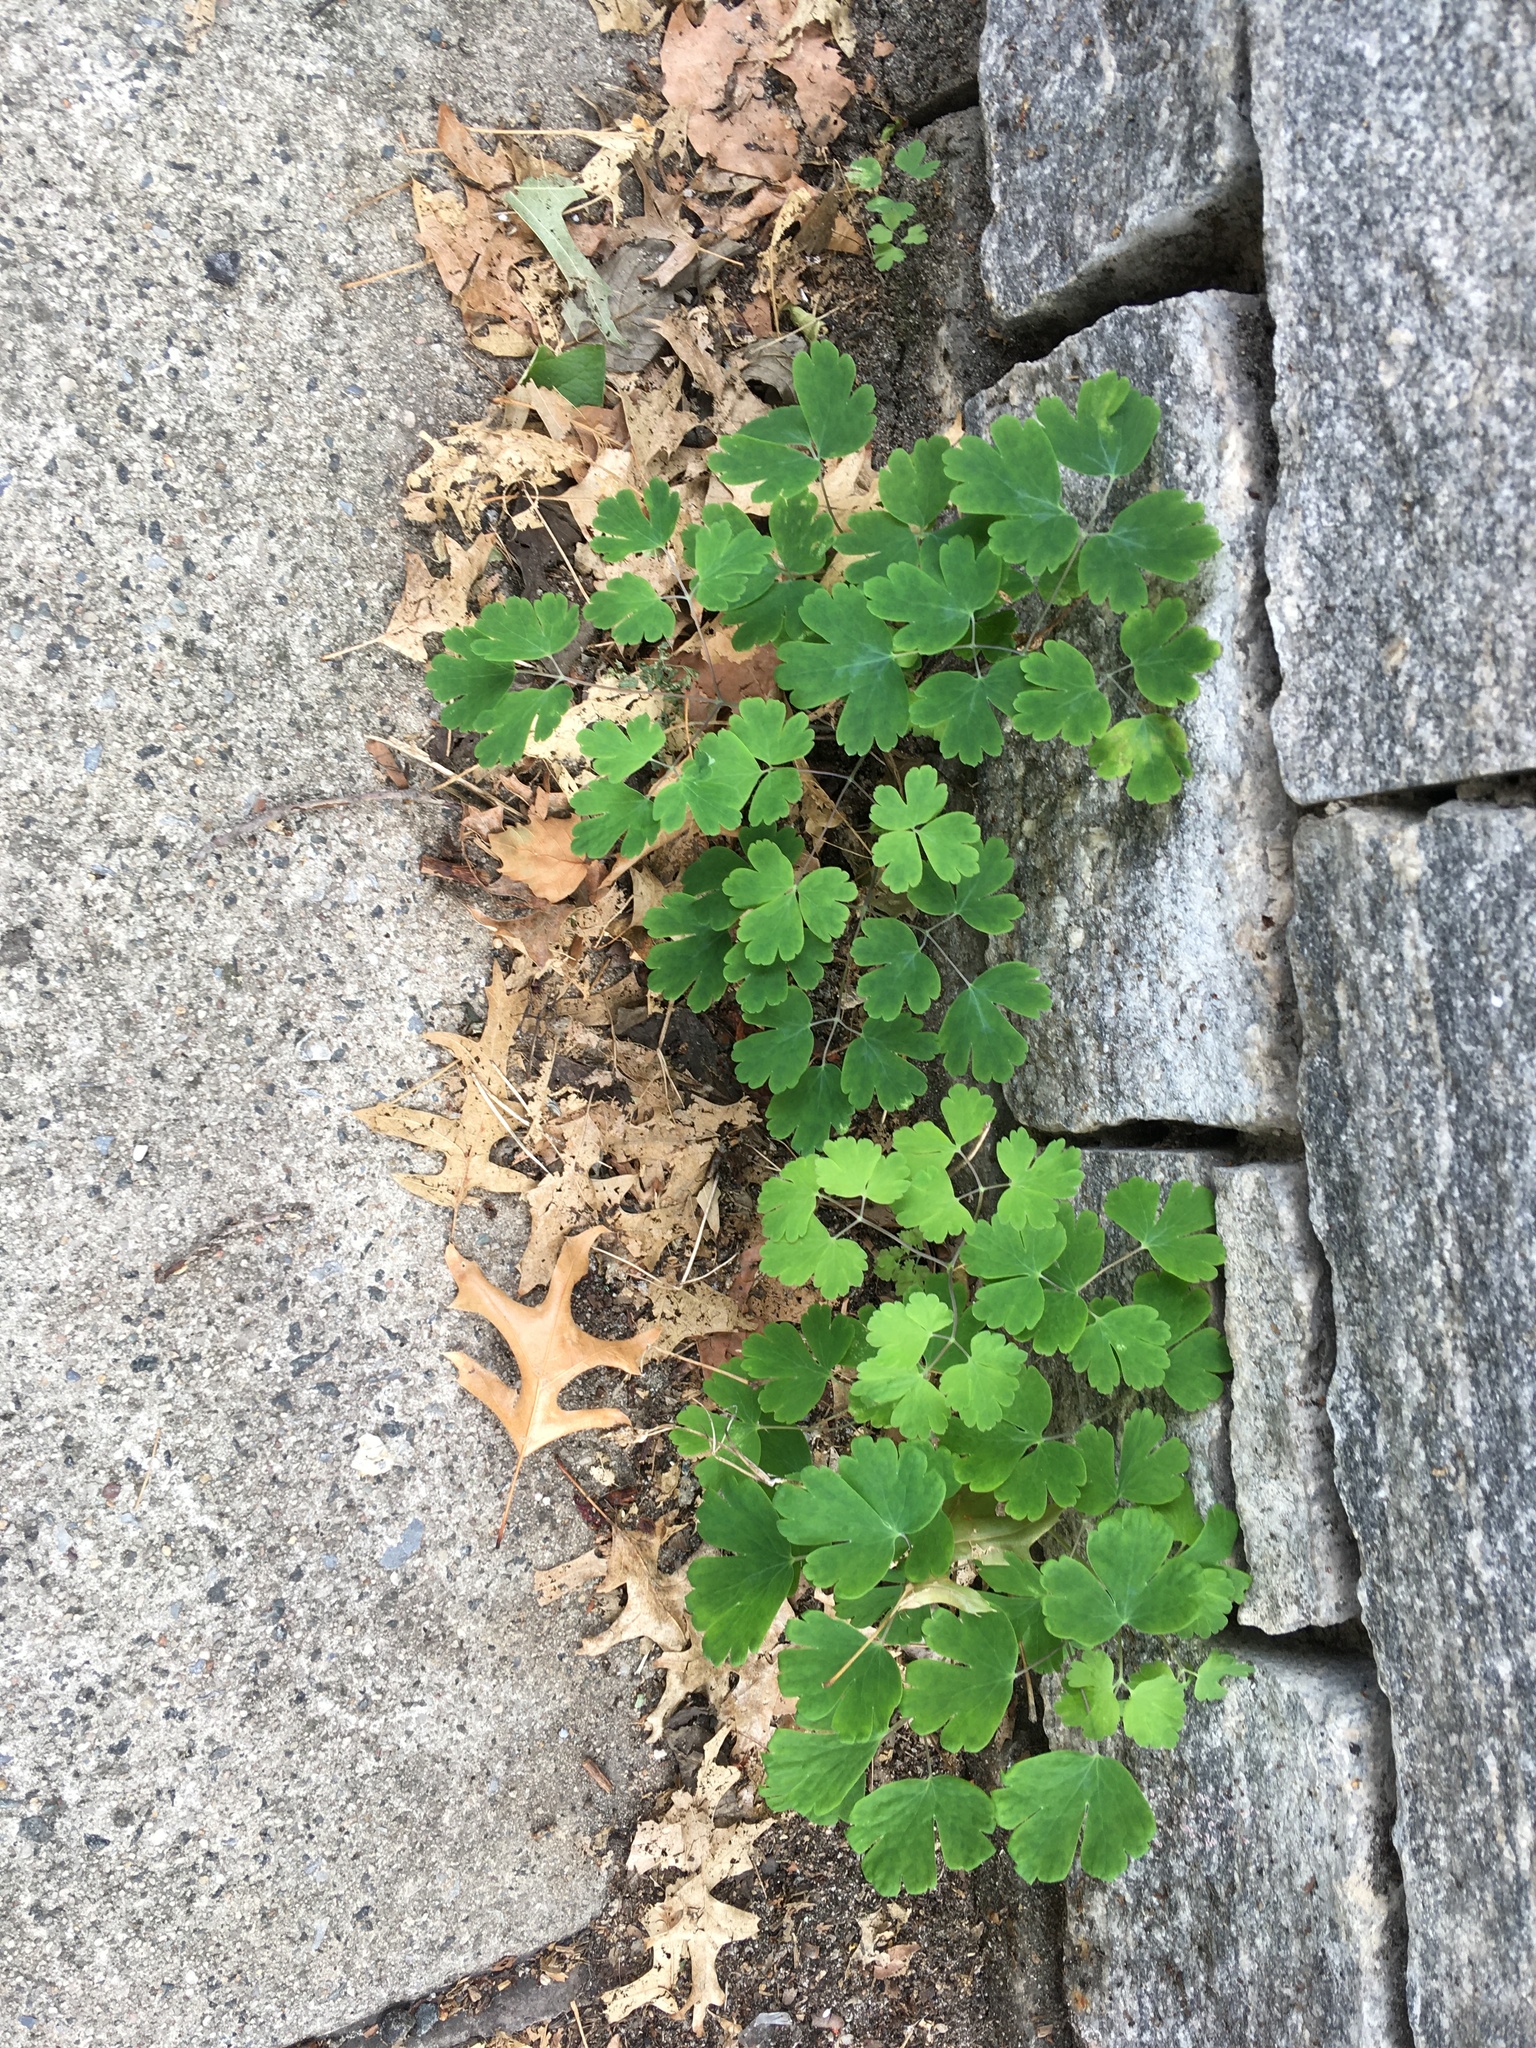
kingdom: Plantae
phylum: Tracheophyta
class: Magnoliopsida
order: Ranunculales
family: Ranunculaceae
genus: Aquilegia
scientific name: Aquilegia canadensis
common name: American columbine
